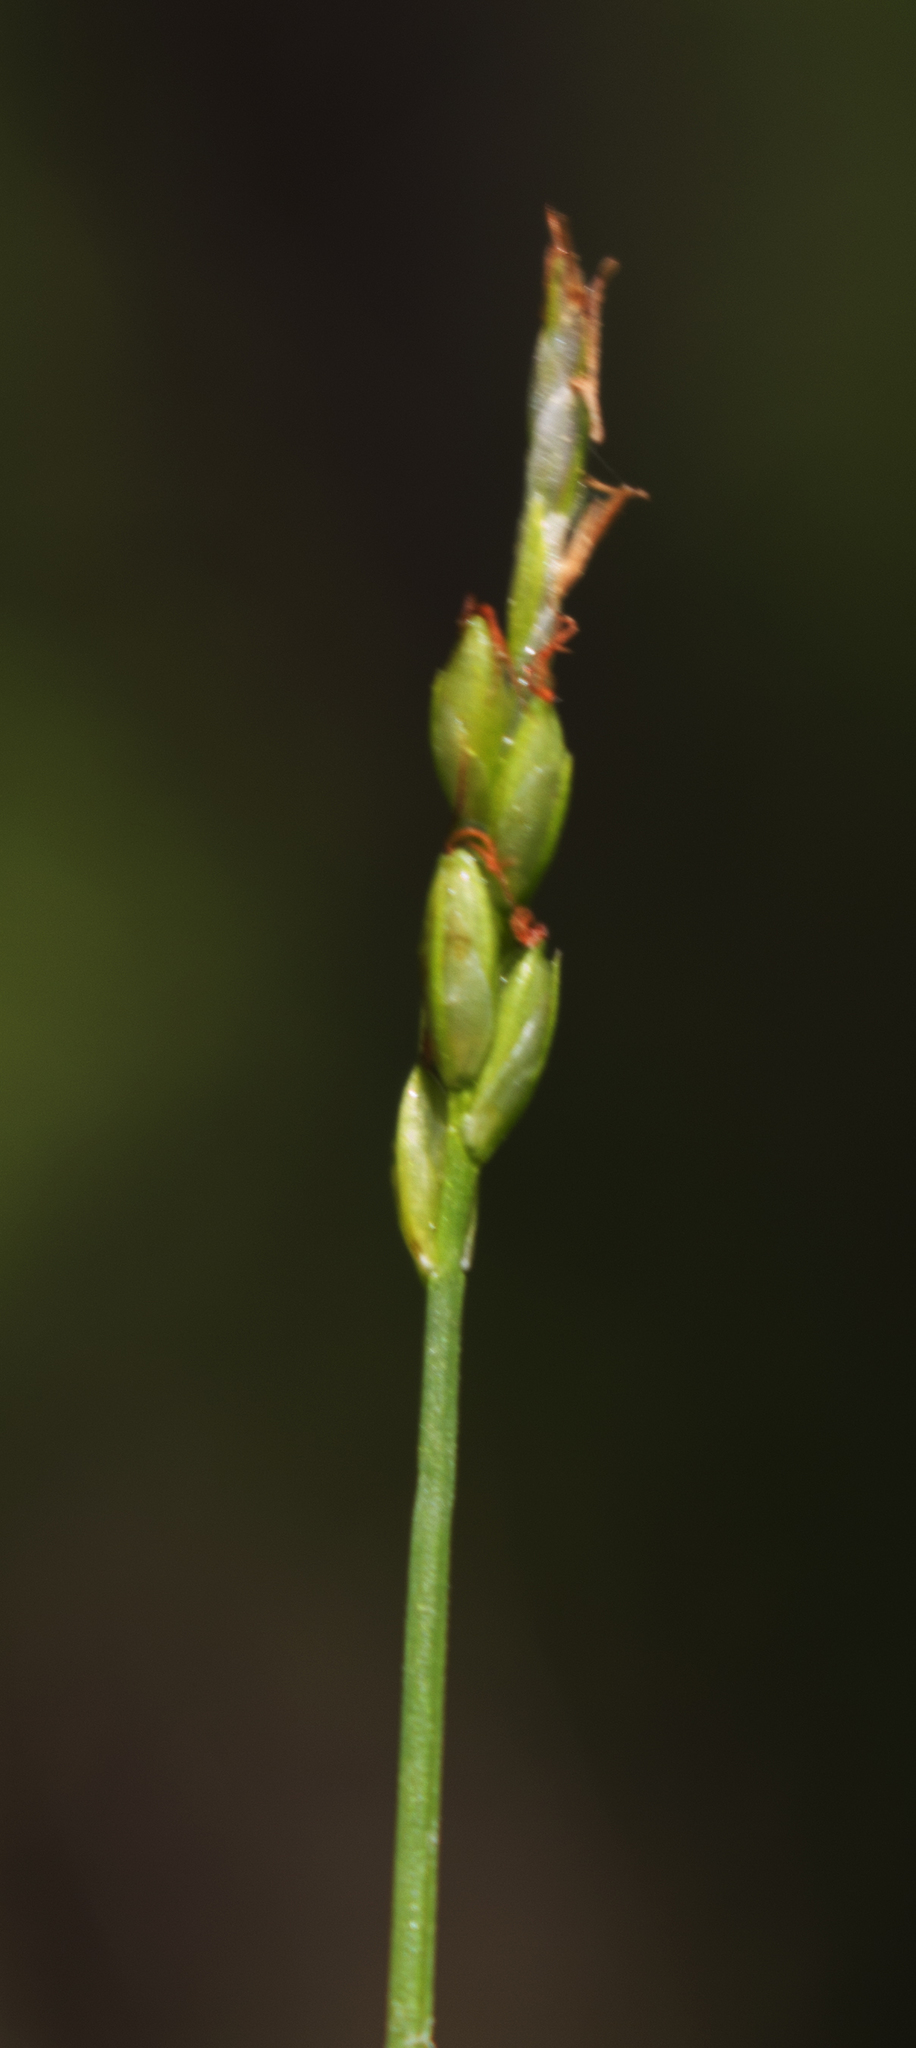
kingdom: Plantae
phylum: Tracheophyta
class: Liliopsida
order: Poales
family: Cyperaceae
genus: Carex
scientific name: Carex leptalea
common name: Bristly-stalked sedge
